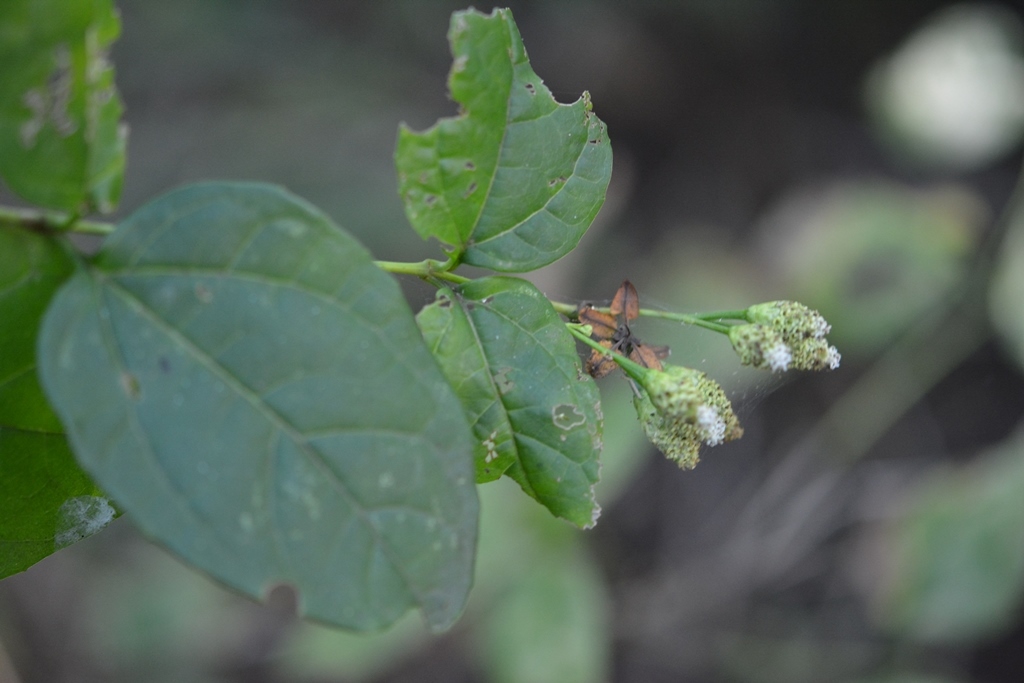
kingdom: Plantae
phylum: Tracheophyta
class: Magnoliopsida
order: Asterales
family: Asteraceae
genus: Salmea
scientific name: Salmea scandens
